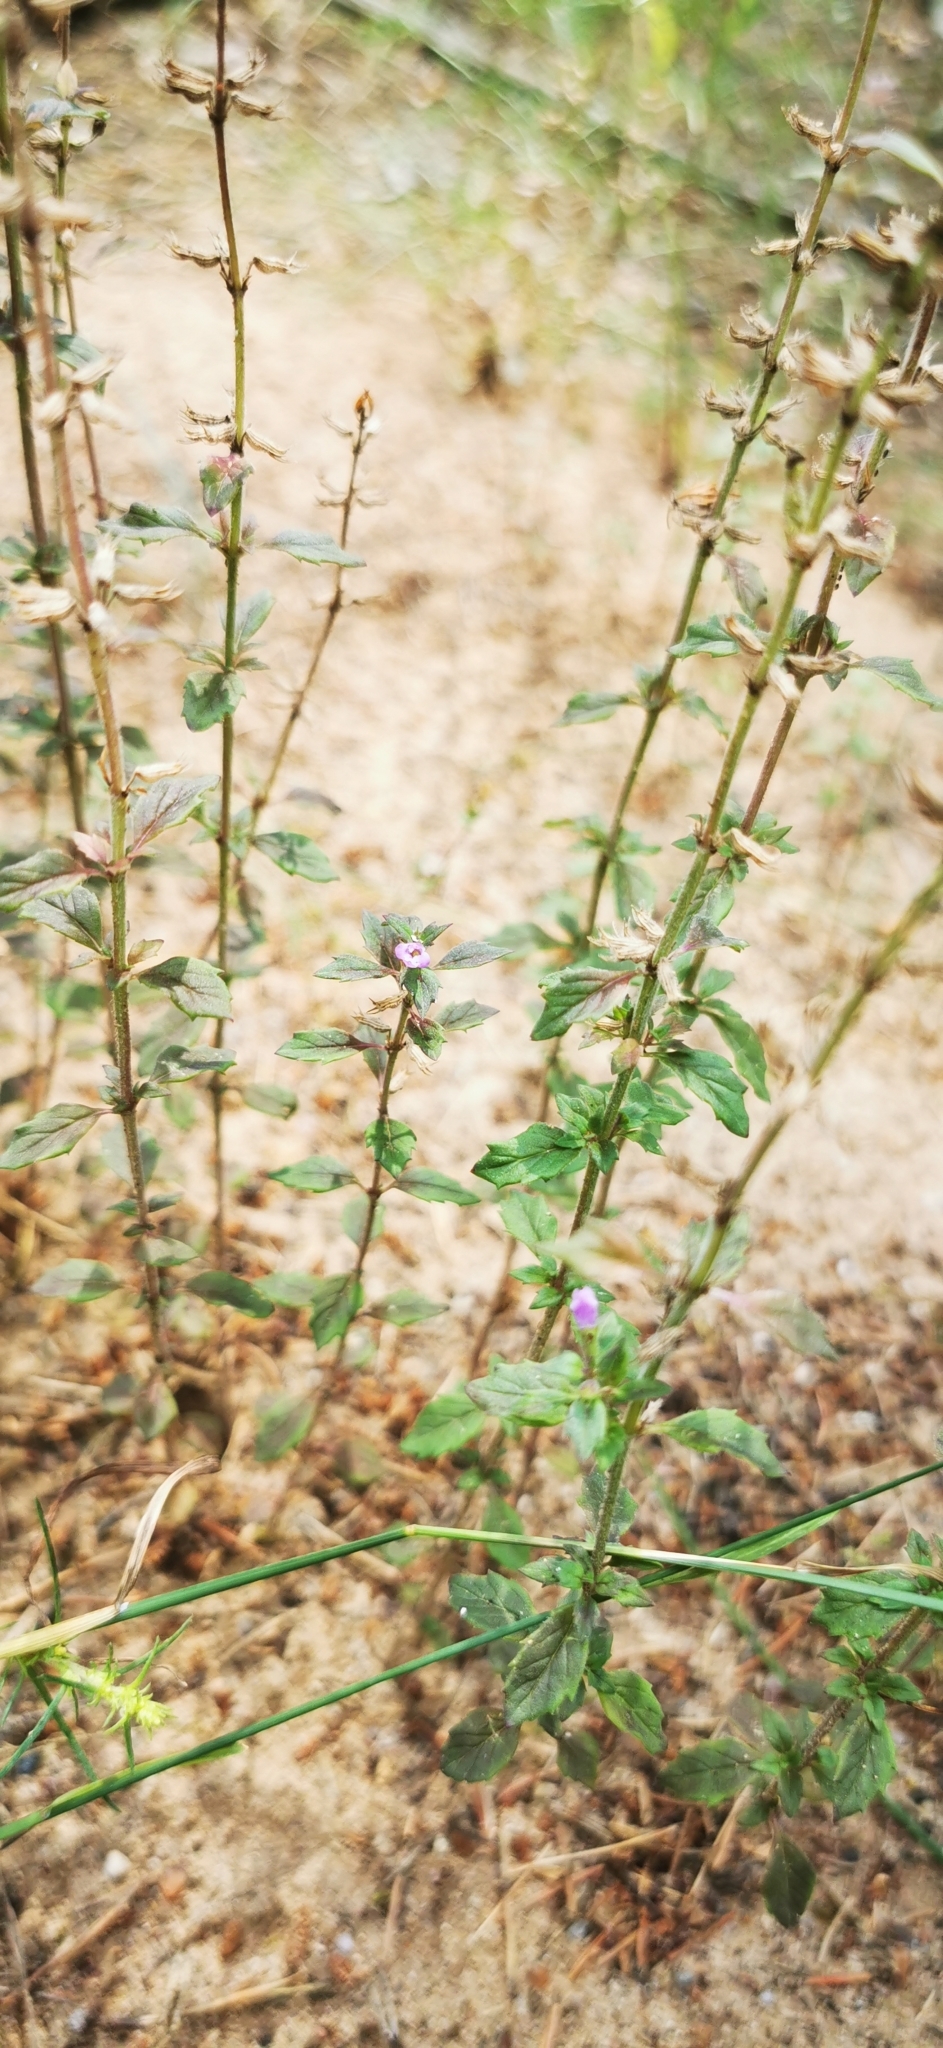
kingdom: Plantae
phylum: Tracheophyta
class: Magnoliopsida
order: Lamiales
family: Lamiaceae
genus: Clinopodium
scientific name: Clinopodium acinos
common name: Basil thyme
